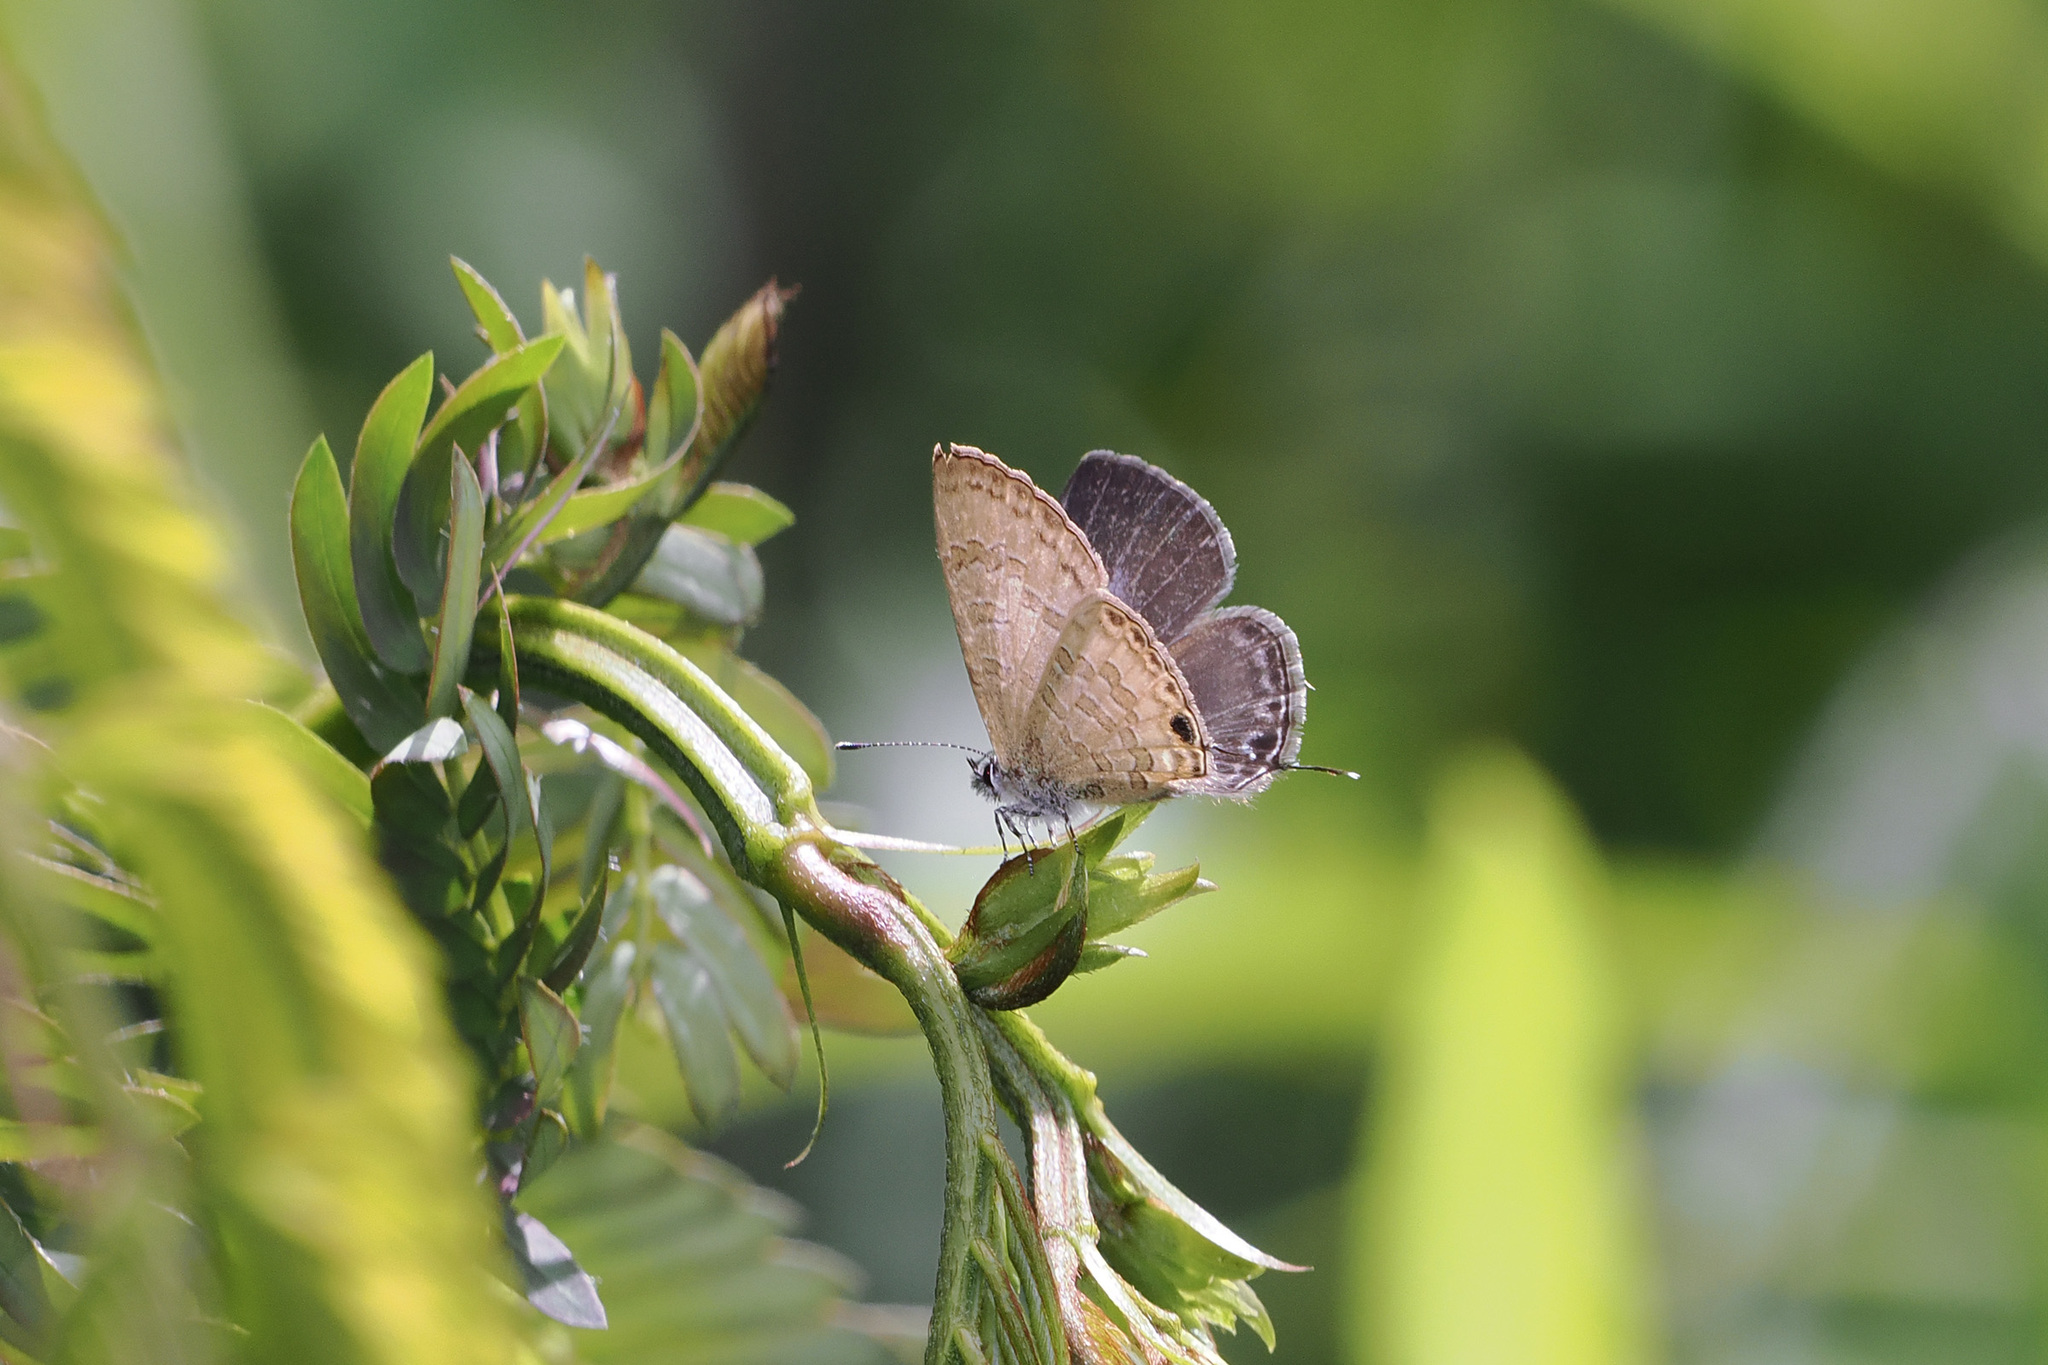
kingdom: Animalia
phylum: Arthropoda
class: Insecta
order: Lepidoptera
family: Lycaenidae
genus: Prosotas
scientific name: Prosotas nora
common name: Common line blue
